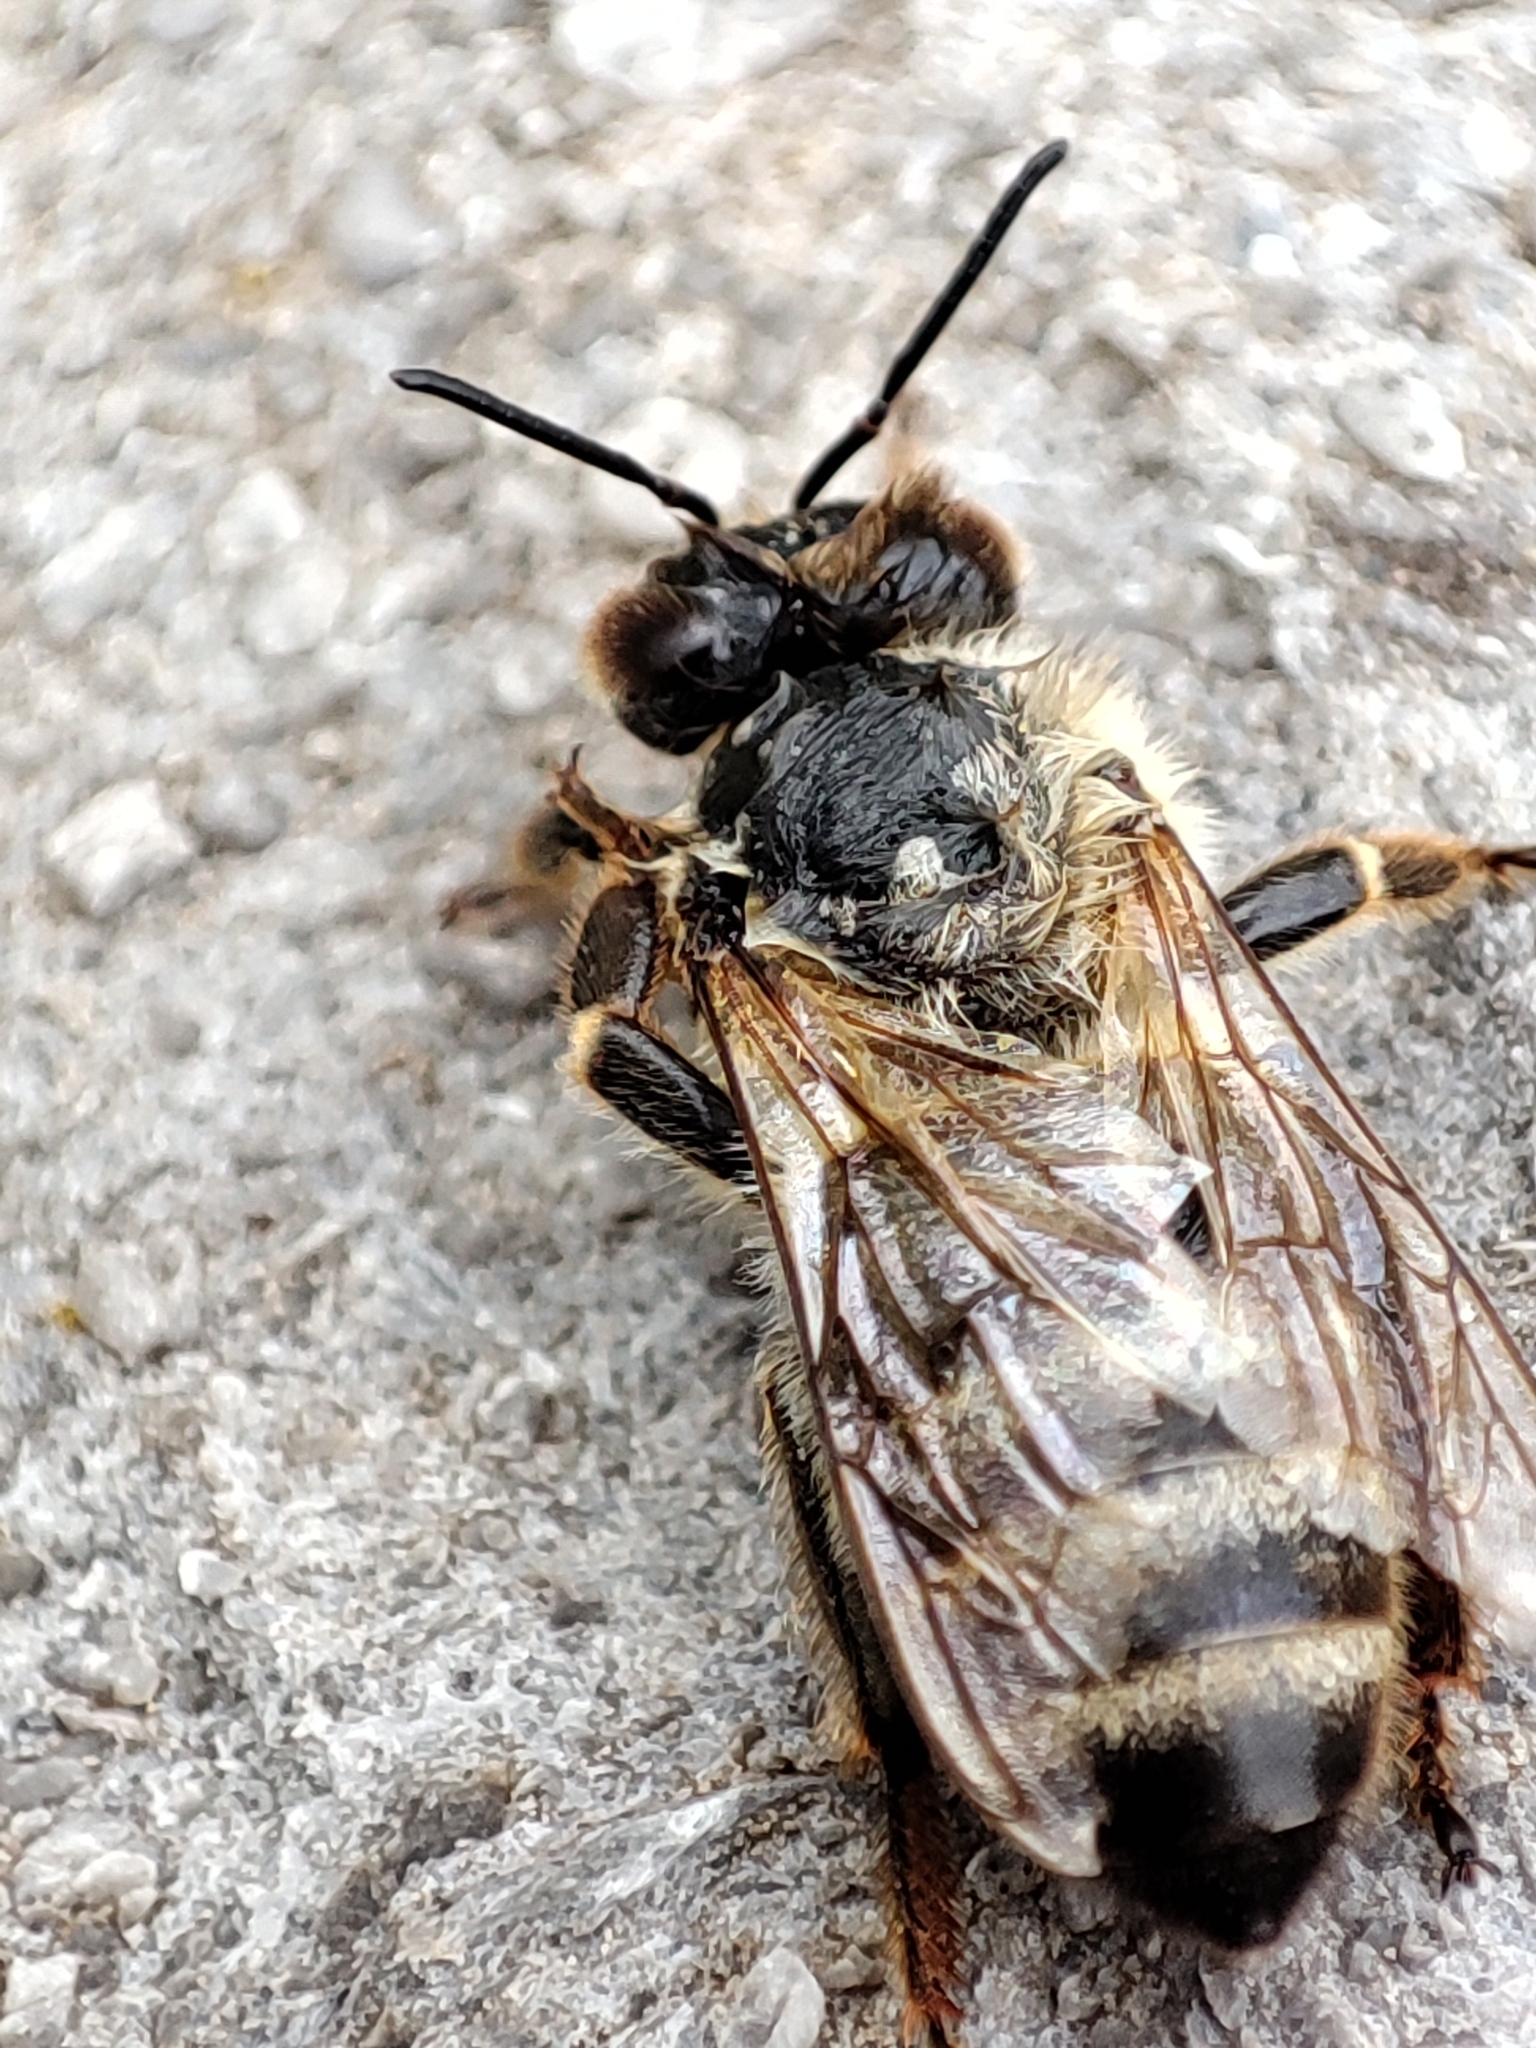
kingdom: Animalia
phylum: Arthropoda
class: Insecta
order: Hymenoptera
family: Apidae
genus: Apis
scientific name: Apis mellifera
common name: Honey bee
